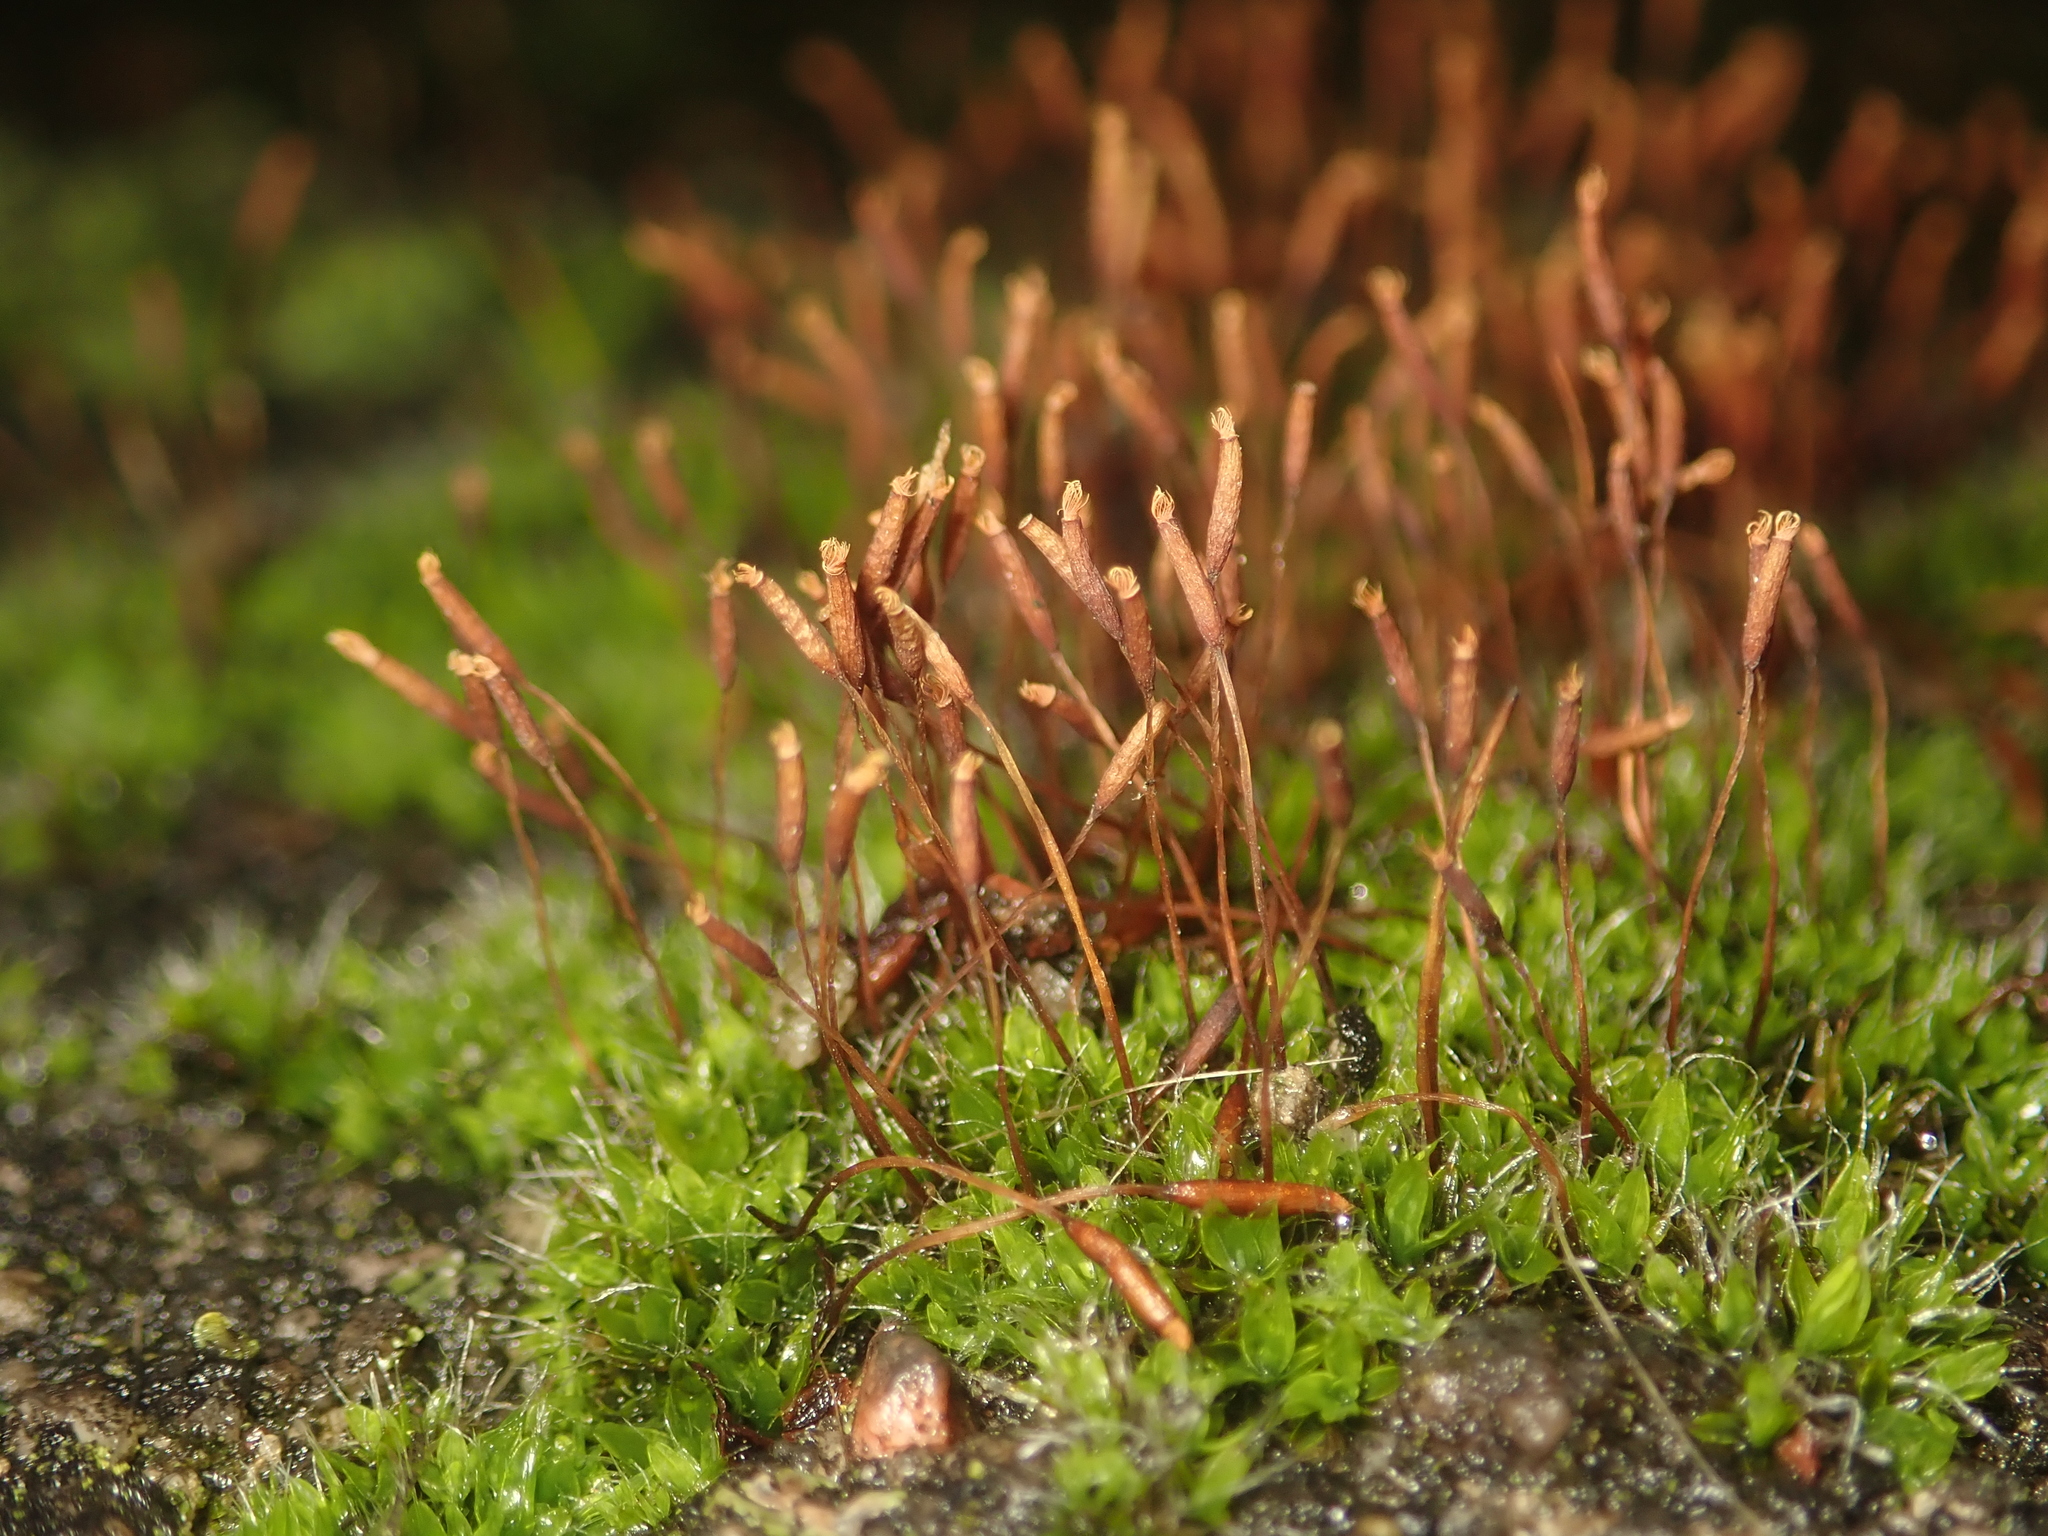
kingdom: Plantae
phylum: Bryophyta
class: Bryopsida
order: Pottiales
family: Pottiaceae
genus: Tortula
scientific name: Tortula muralis
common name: Wall screw-moss
